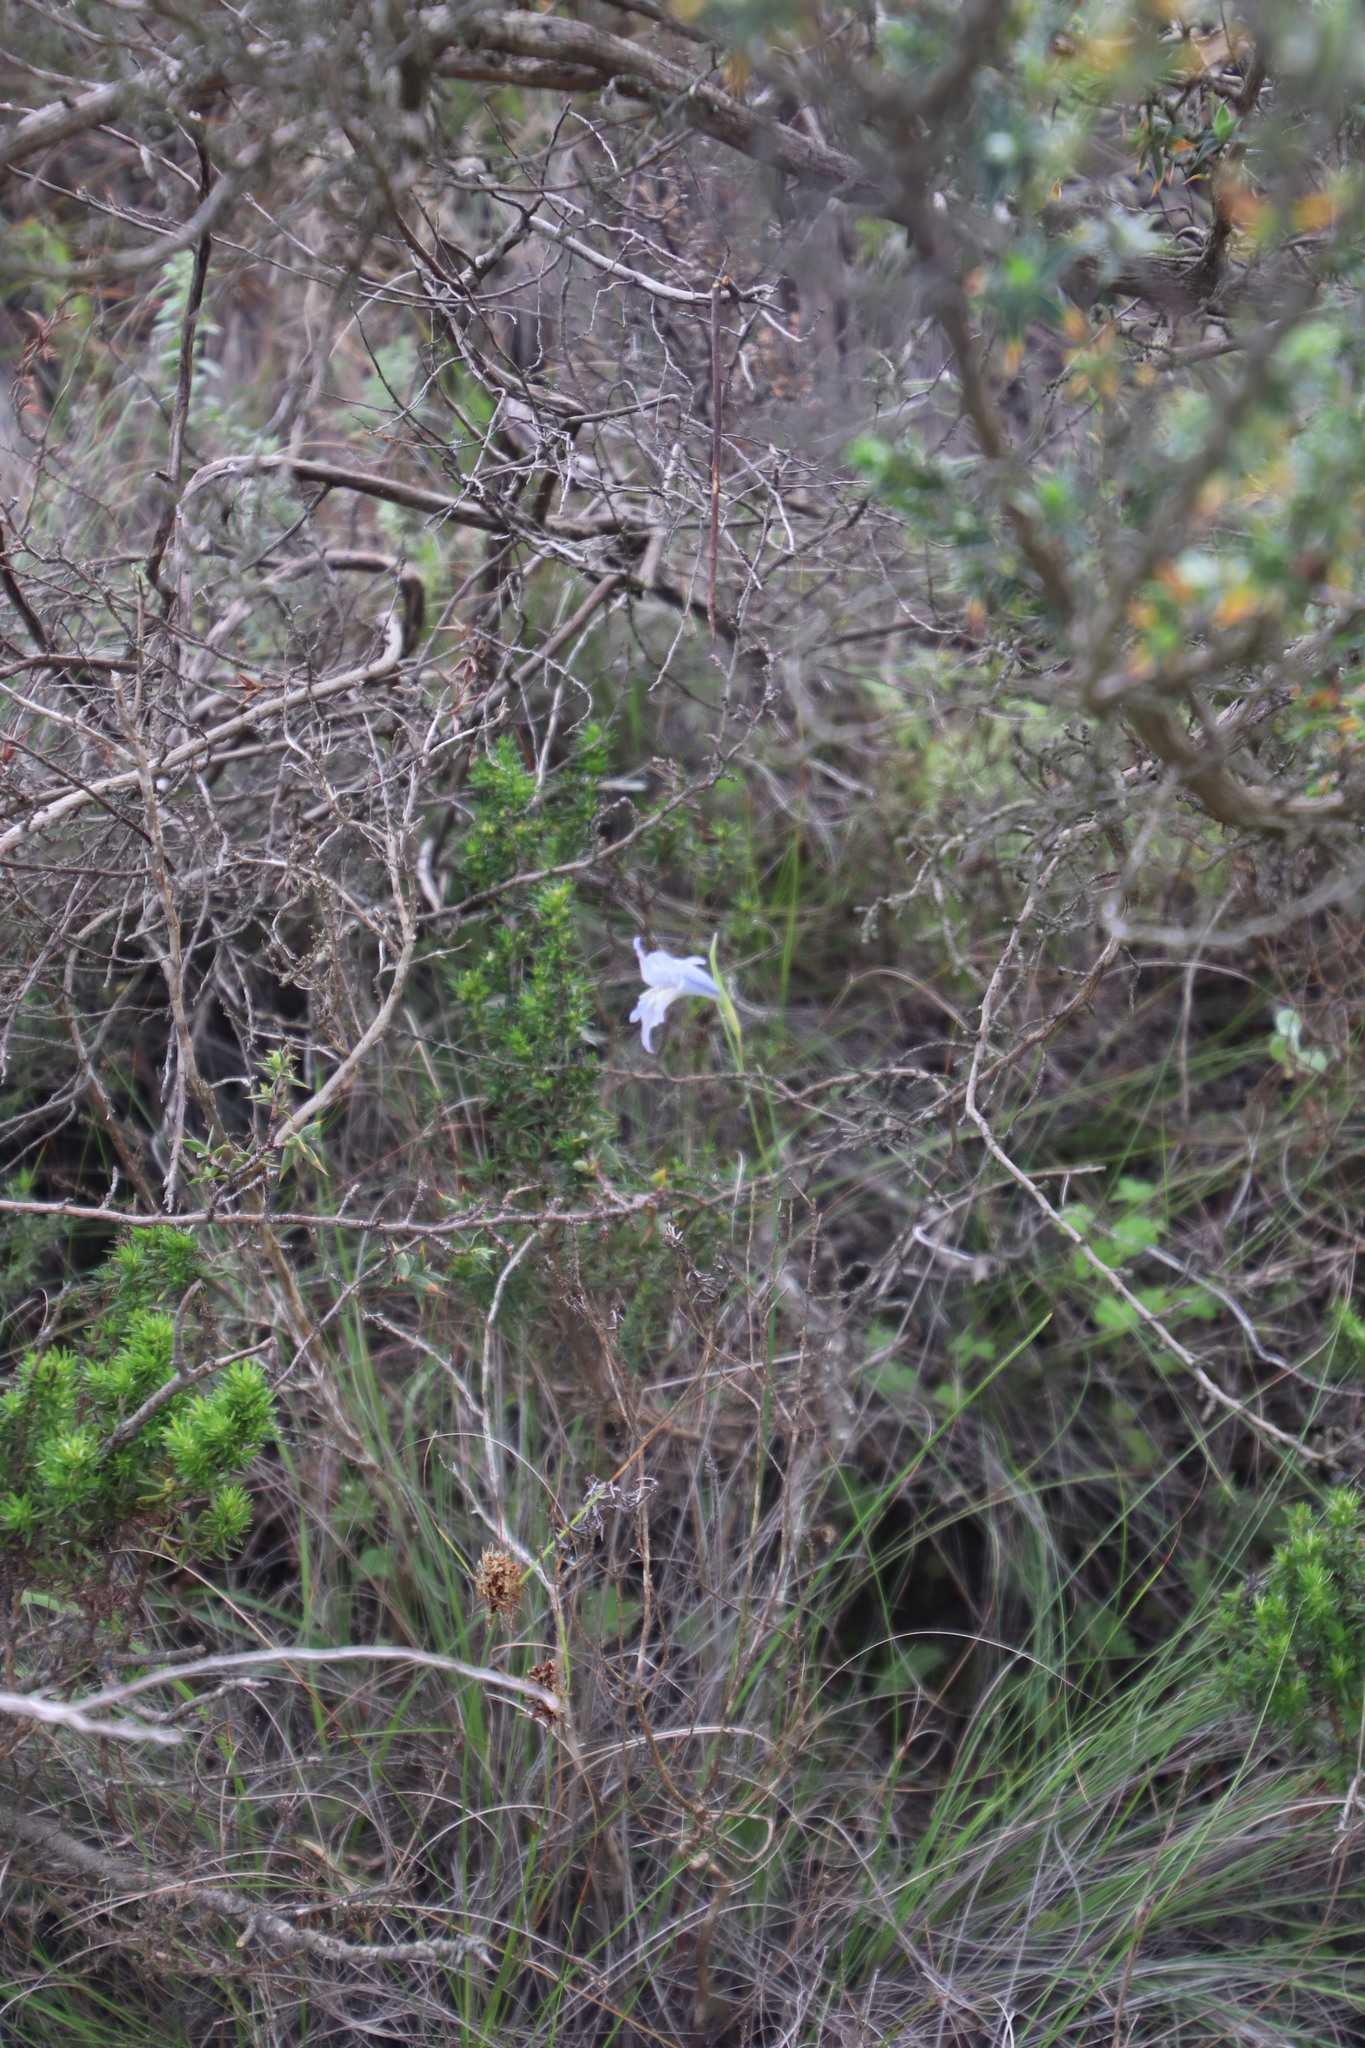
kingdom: Plantae
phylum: Tracheophyta
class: Liliopsida
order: Asparagales
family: Iridaceae
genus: Gladiolus
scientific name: Gladiolus gracilis
